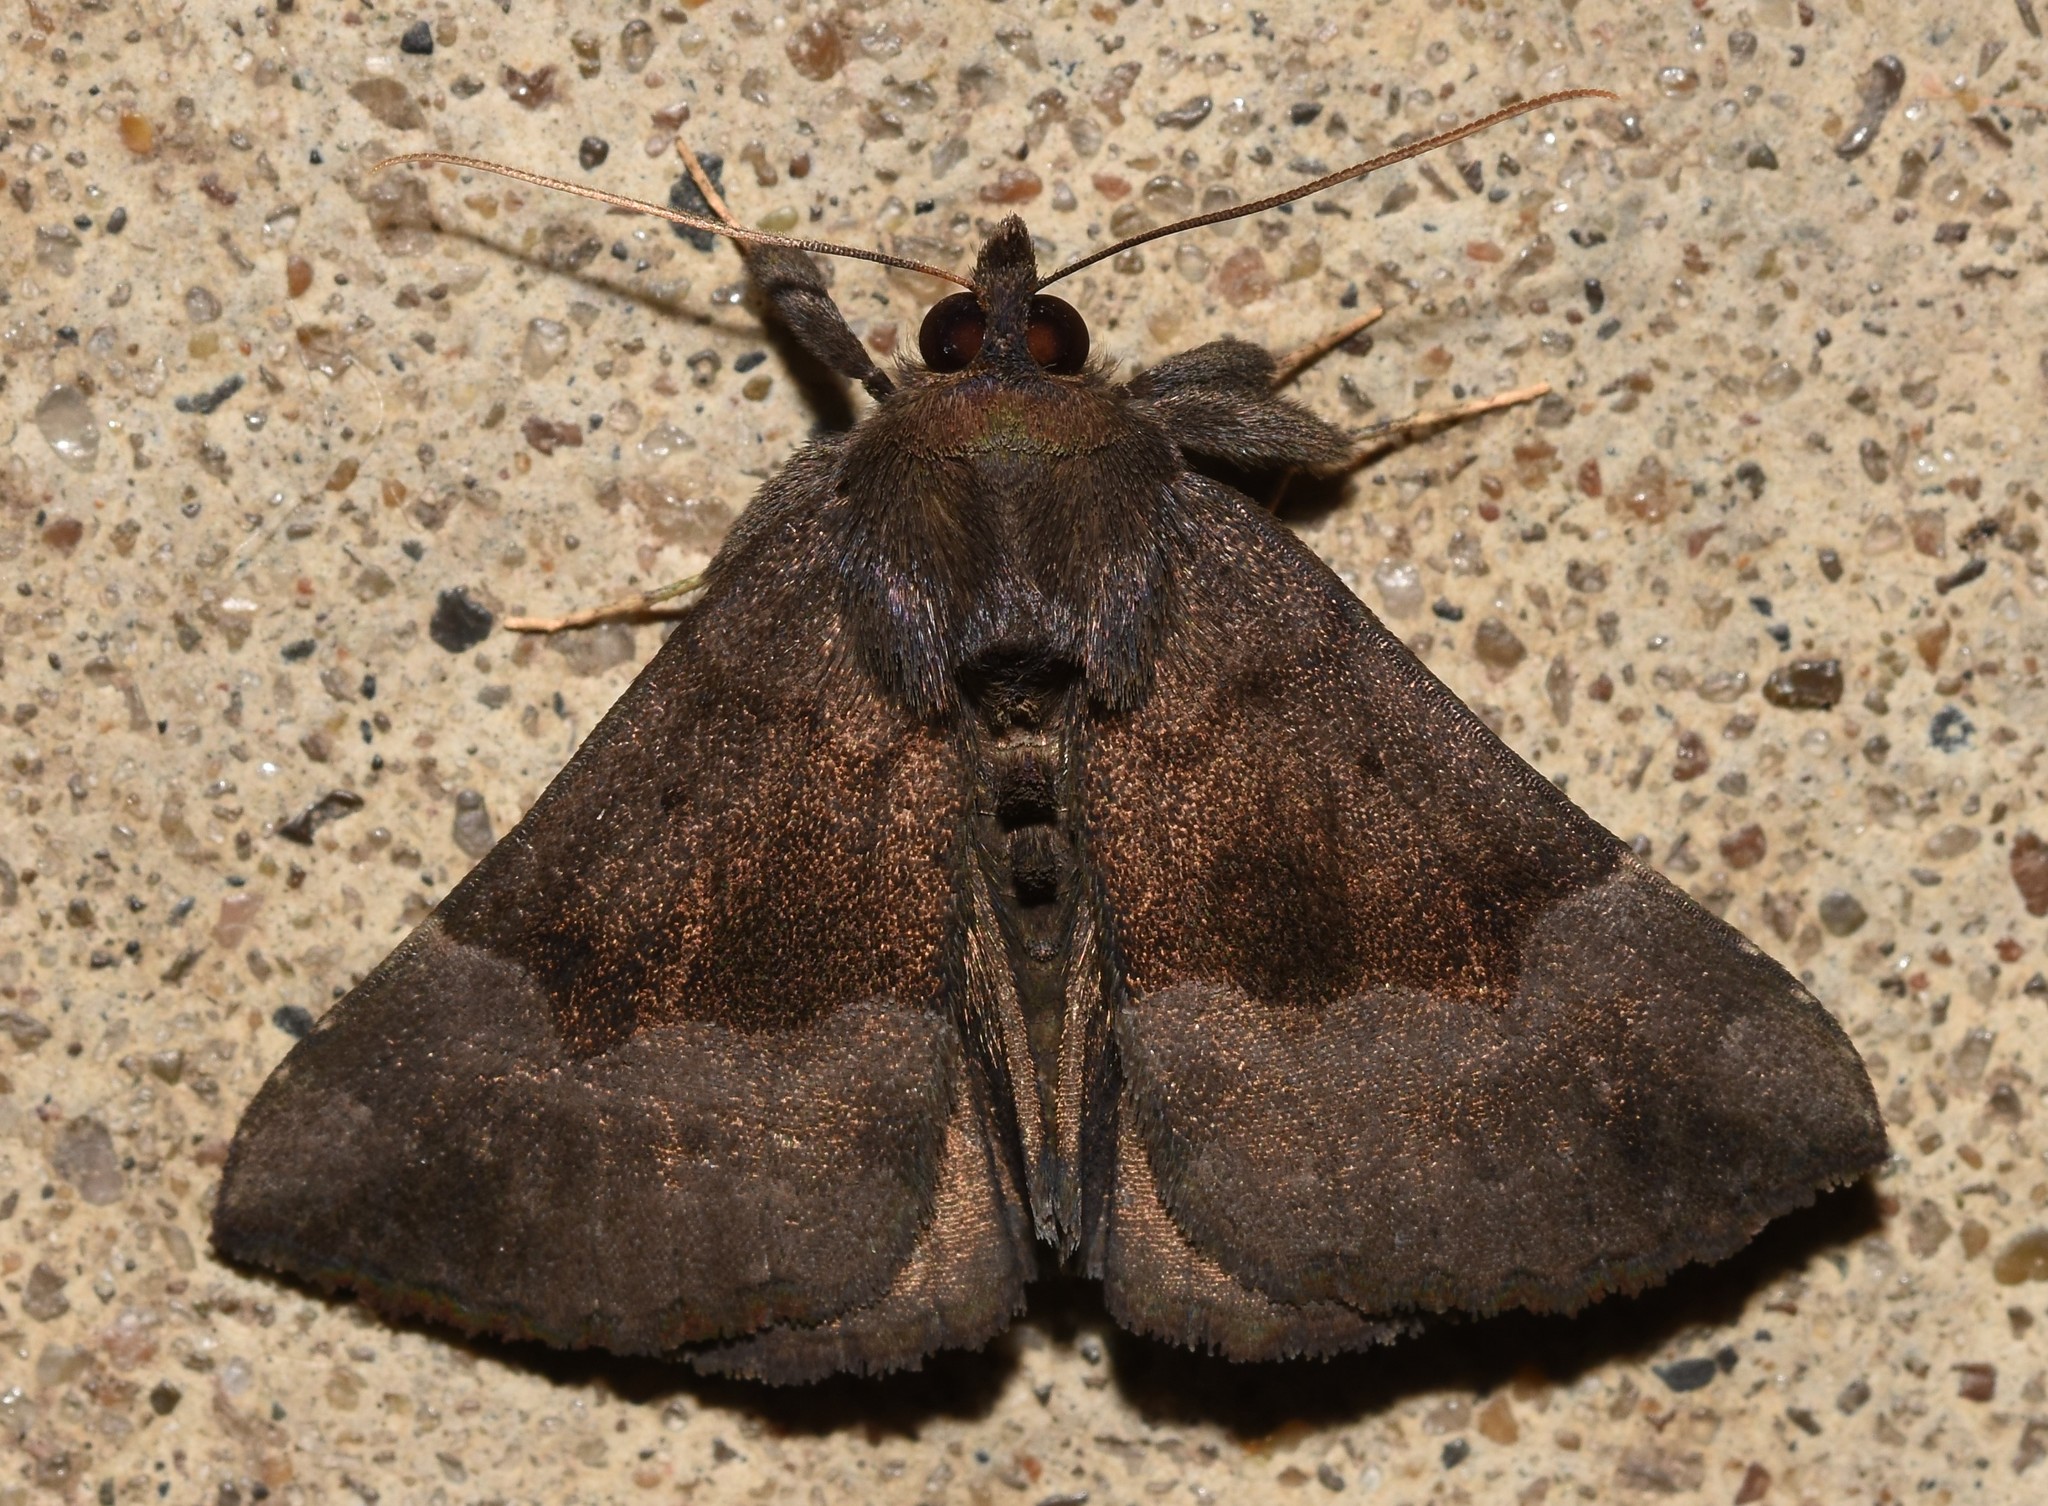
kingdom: Animalia
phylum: Arthropoda
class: Insecta
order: Lepidoptera
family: Erebidae
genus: Hypena
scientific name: Hypena madefactalis
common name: Gray-edged snout
